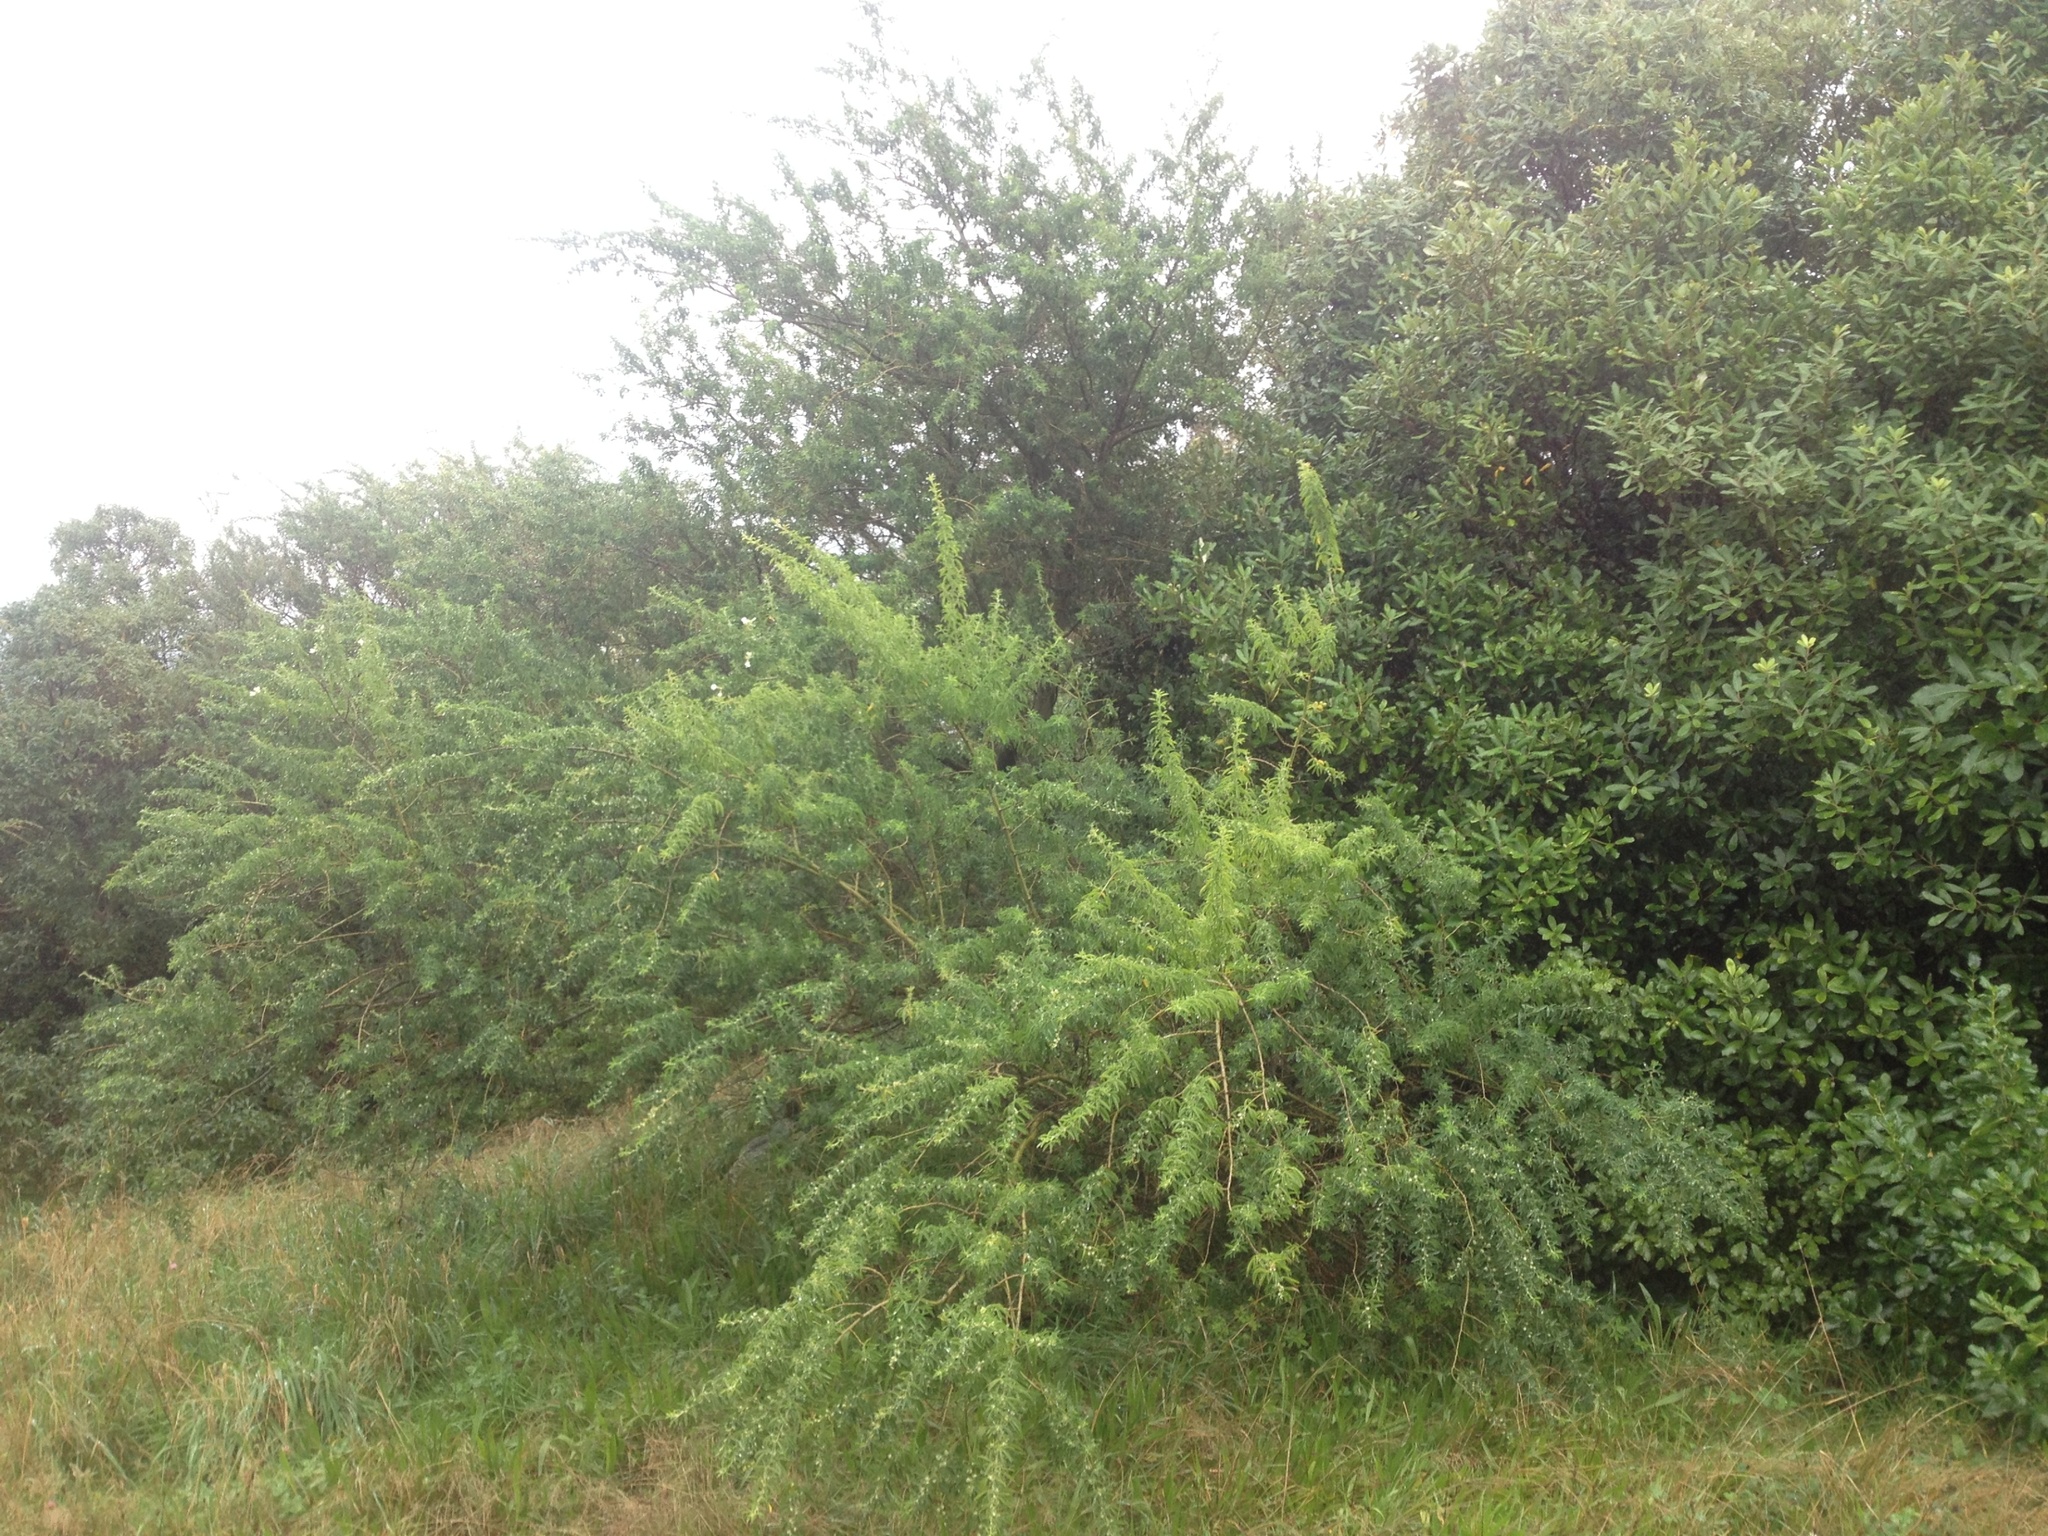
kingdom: Plantae
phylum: Tracheophyta
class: Magnoliopsida
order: Fabales
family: Fabaceae
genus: Chamaecytisus
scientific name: Chamaecytisus prolifer
